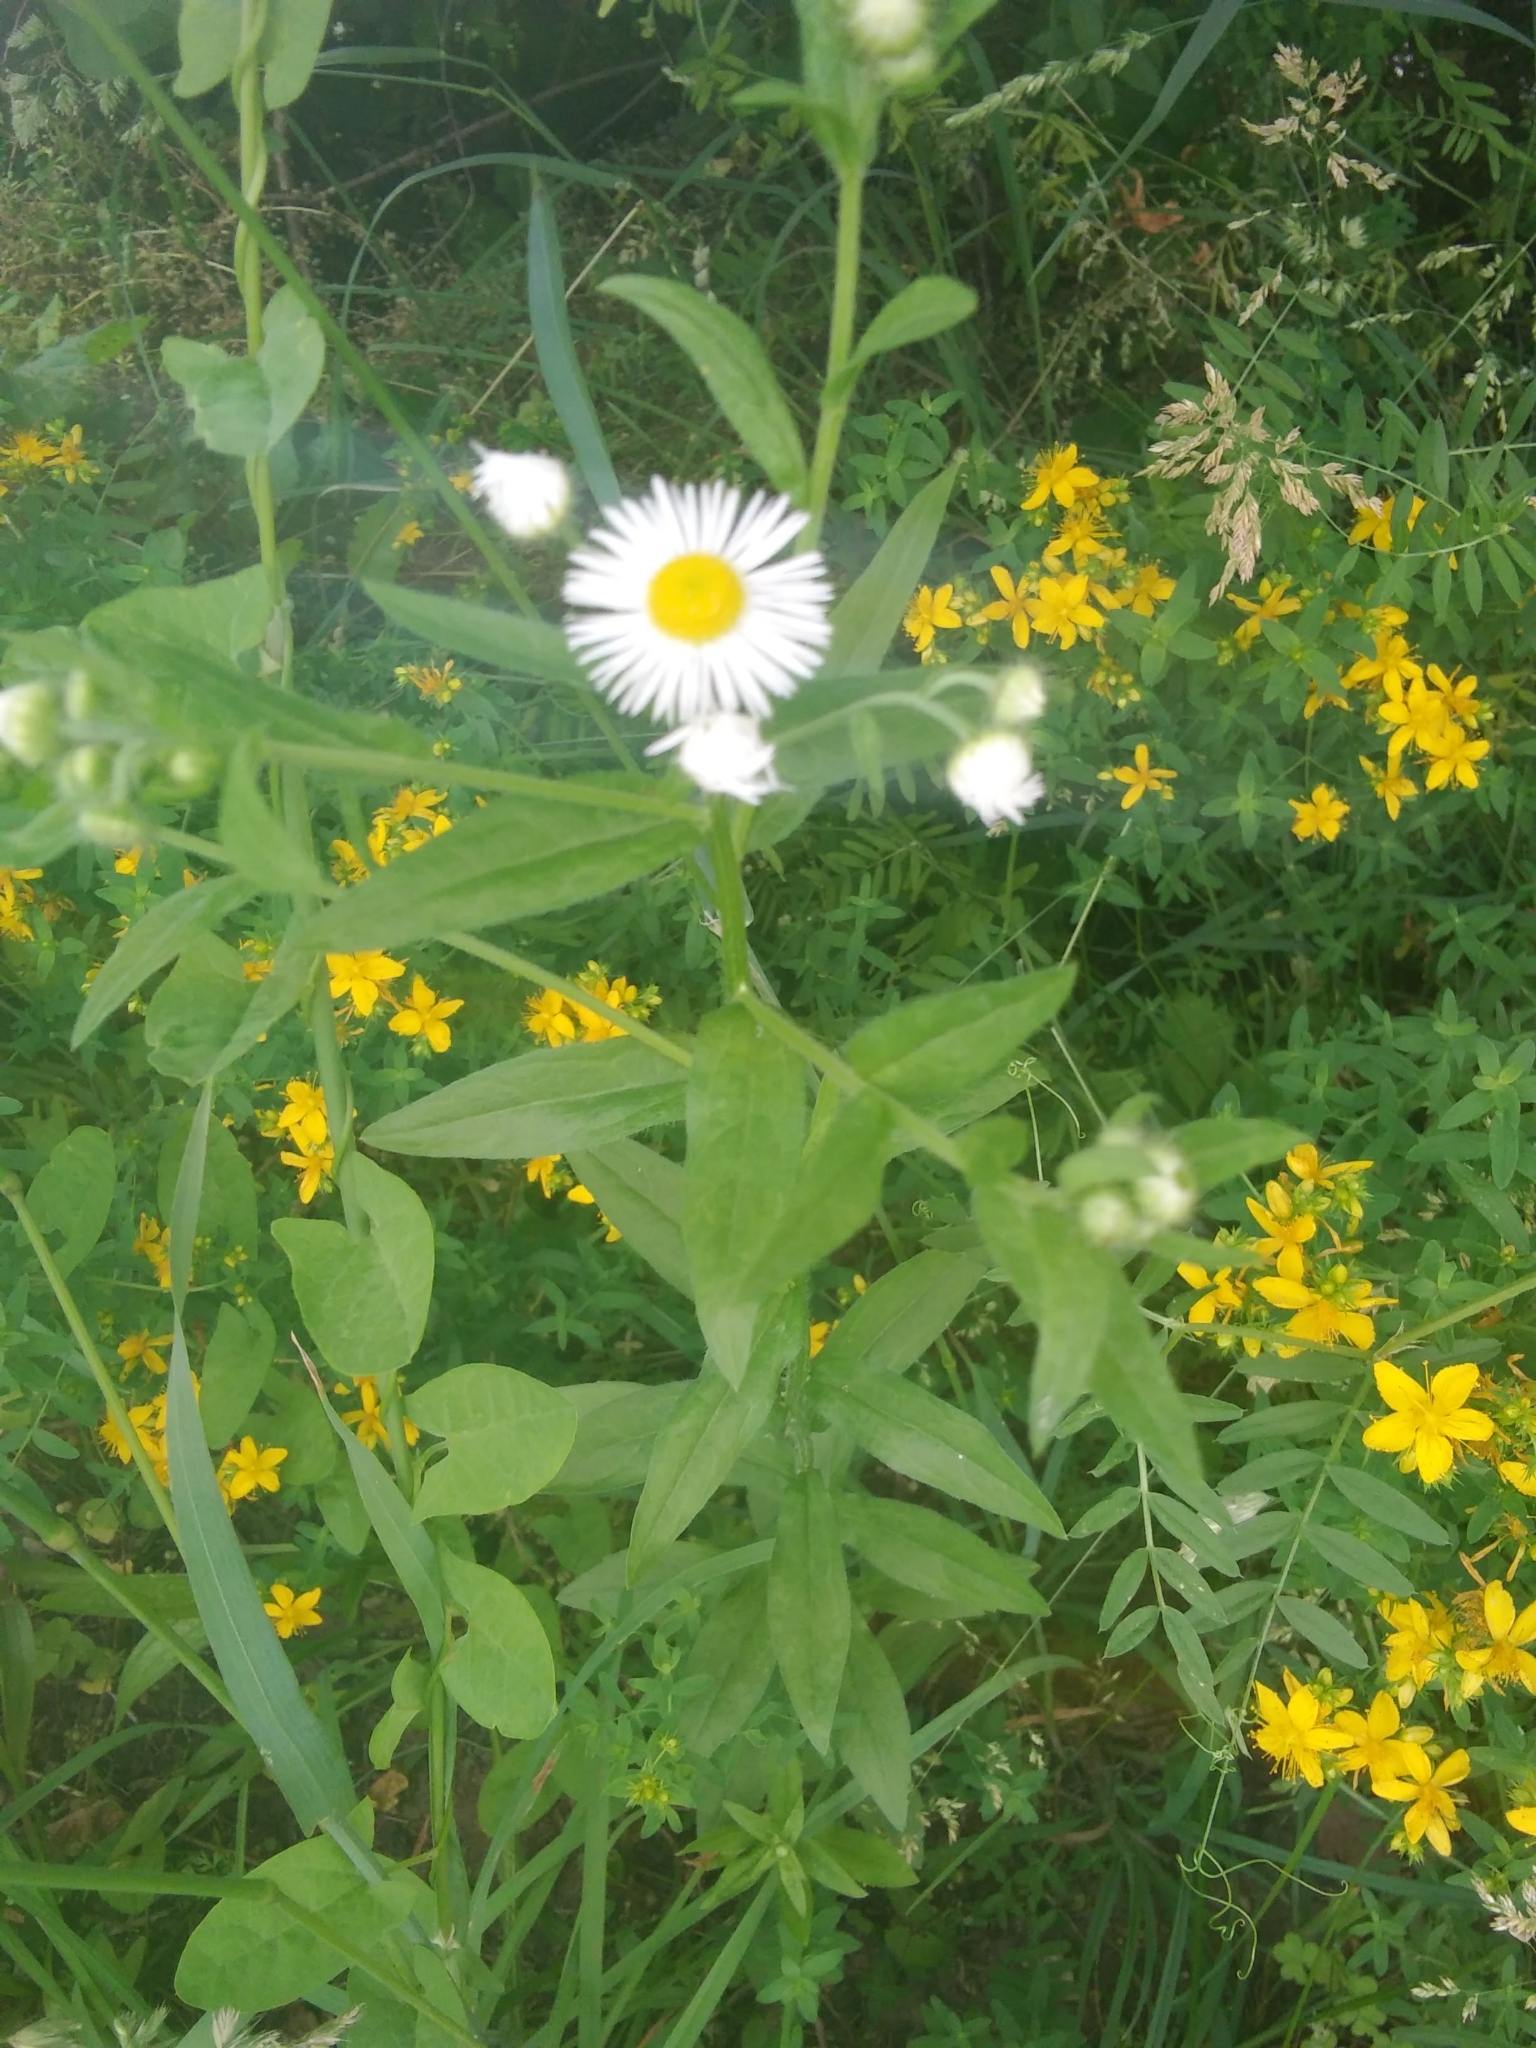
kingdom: Plantae
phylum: Tracheophyta
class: Magnoliopsida
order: Asterales
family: Asteraceae
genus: Erigeron
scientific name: Erigeron annuus
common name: Tall fleabane
